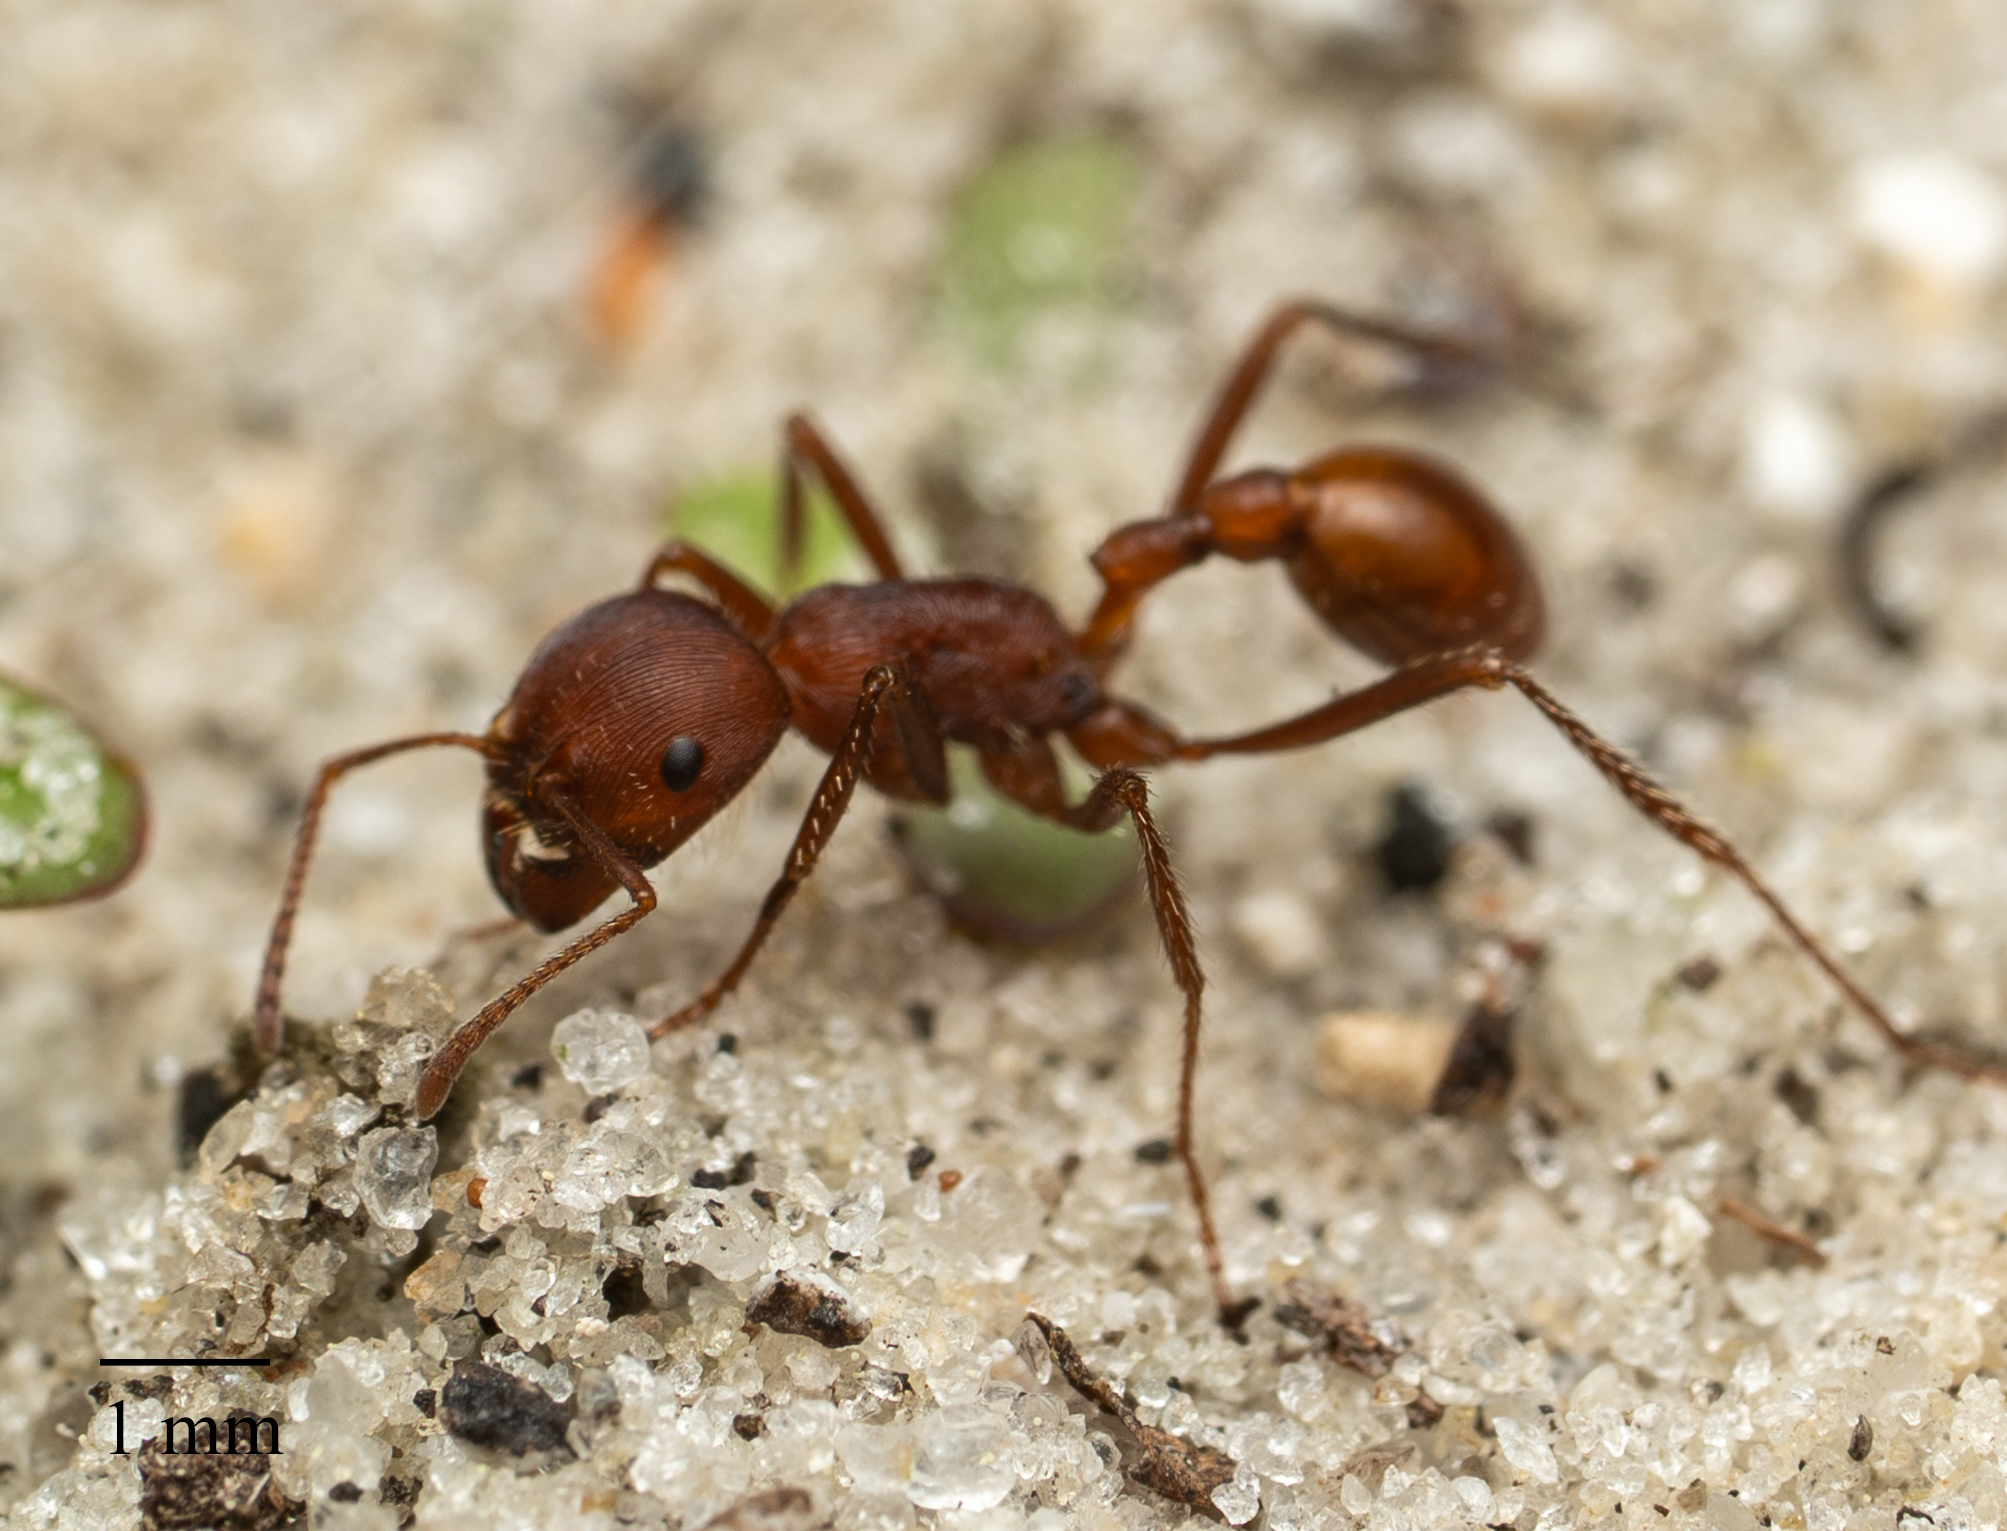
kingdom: Animalia
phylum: Arthropoda
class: Insecta
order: Hymenoptera
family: Formicidae
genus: Pogonomyrmex
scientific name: Pogonomyrmex badius
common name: Florida harvester ant
